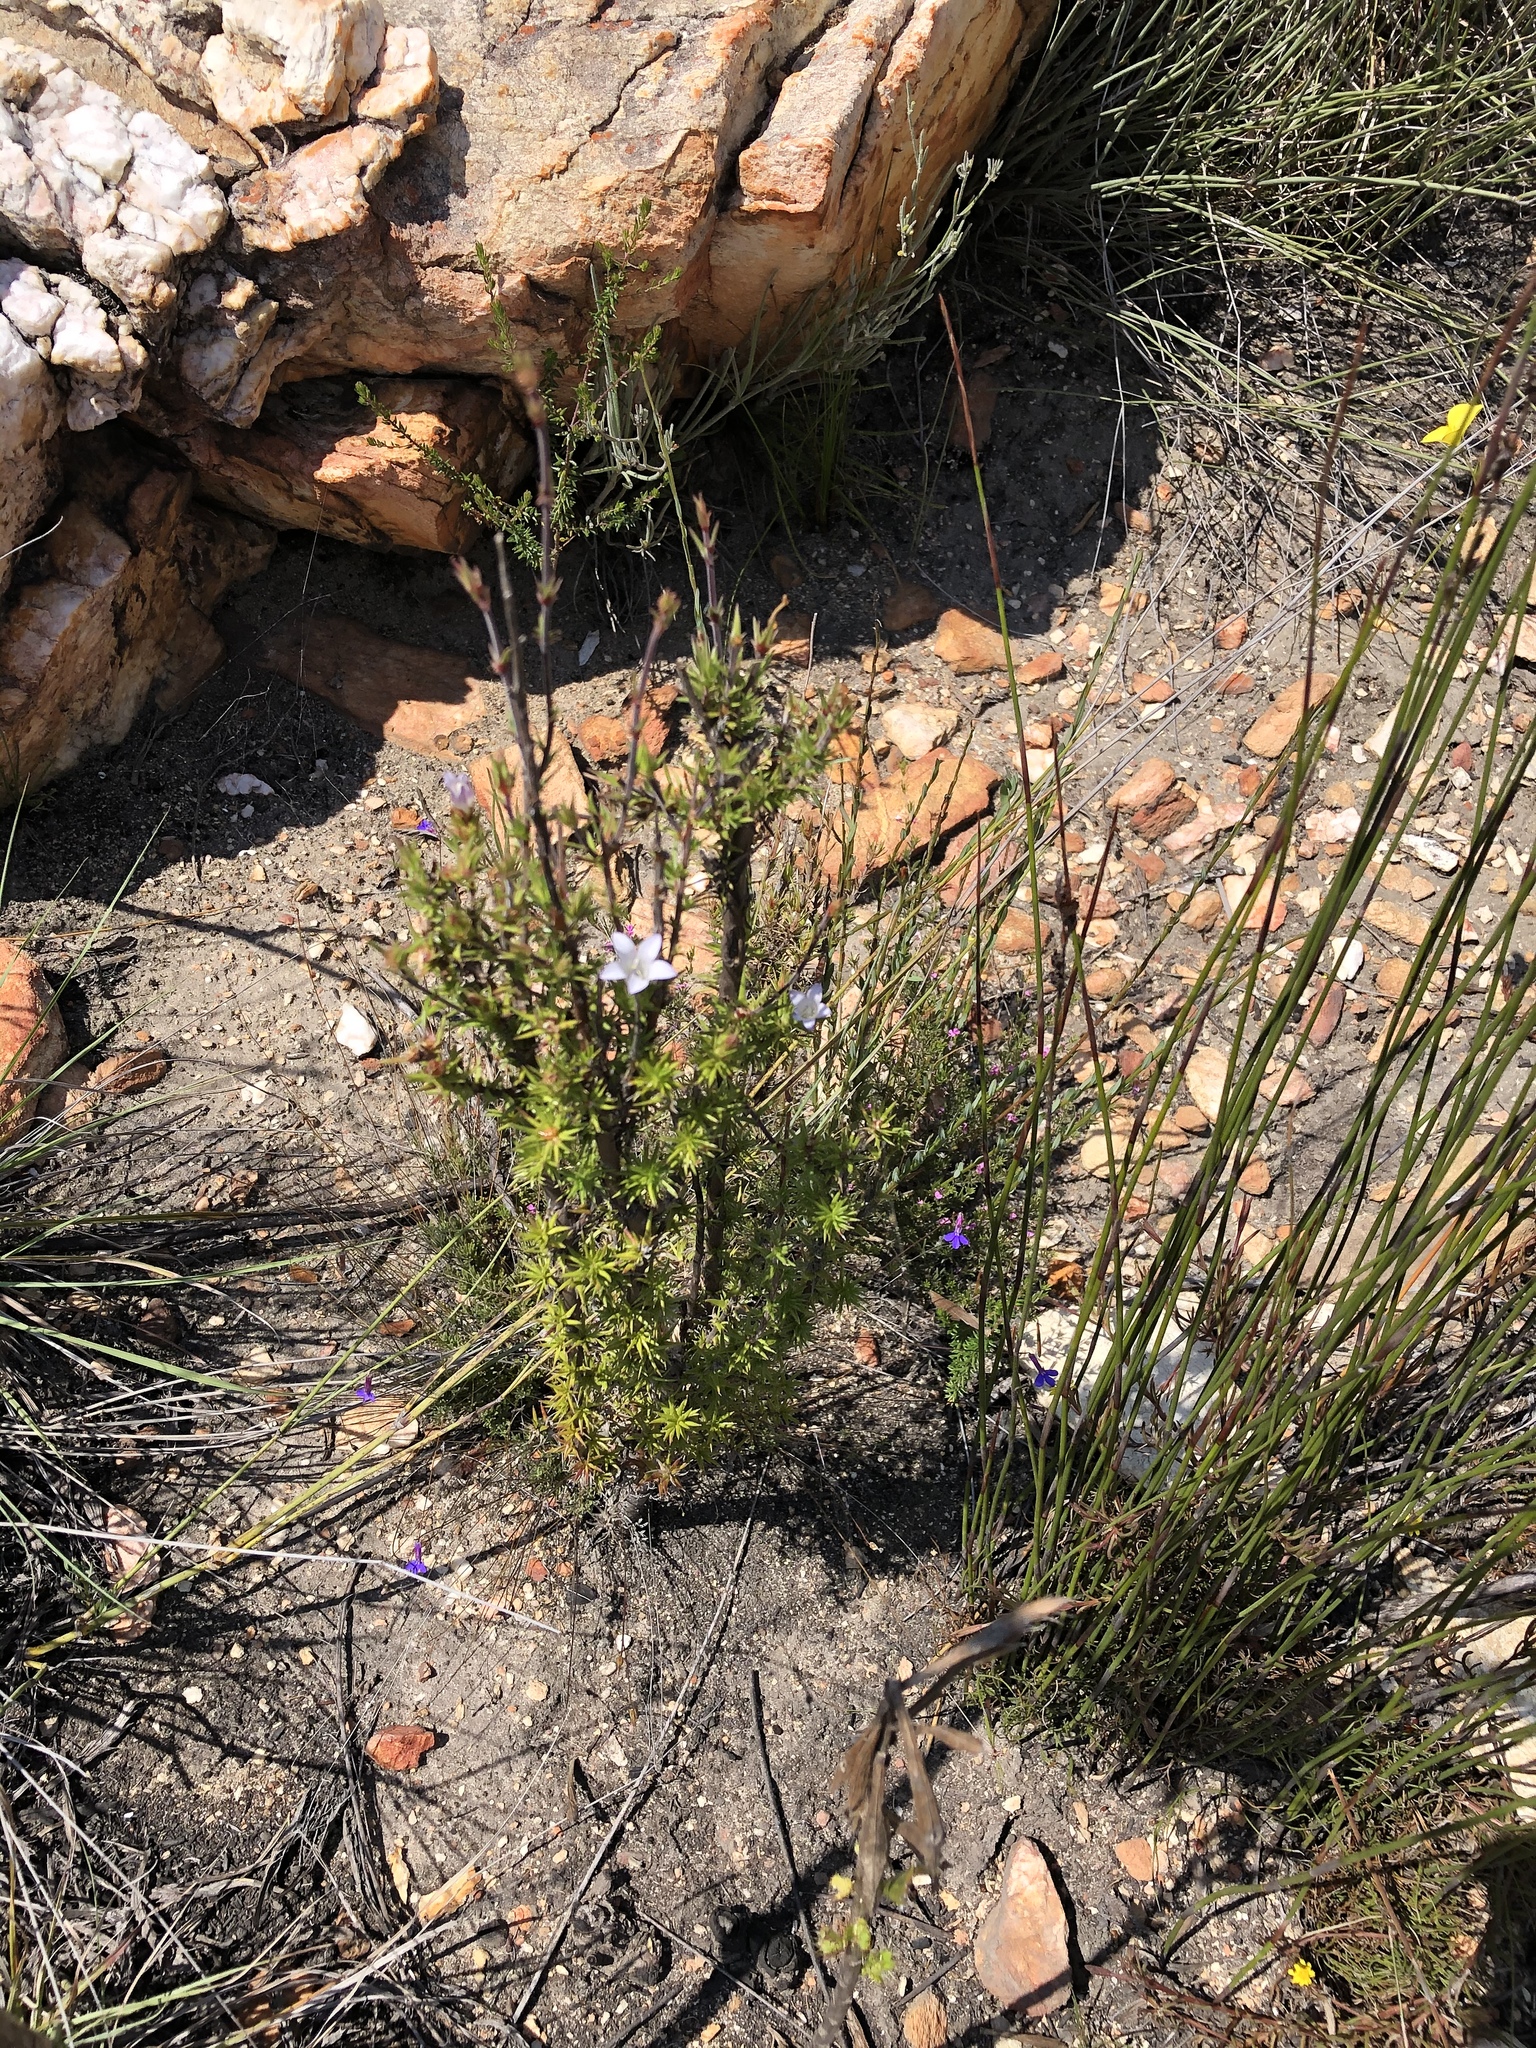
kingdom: Plantae
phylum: Tracheophyta
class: Magnoliopsida
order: Asterales
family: Campanulaceae
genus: Prismatocarpus
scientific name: Prismatocarpus cliffortioides
